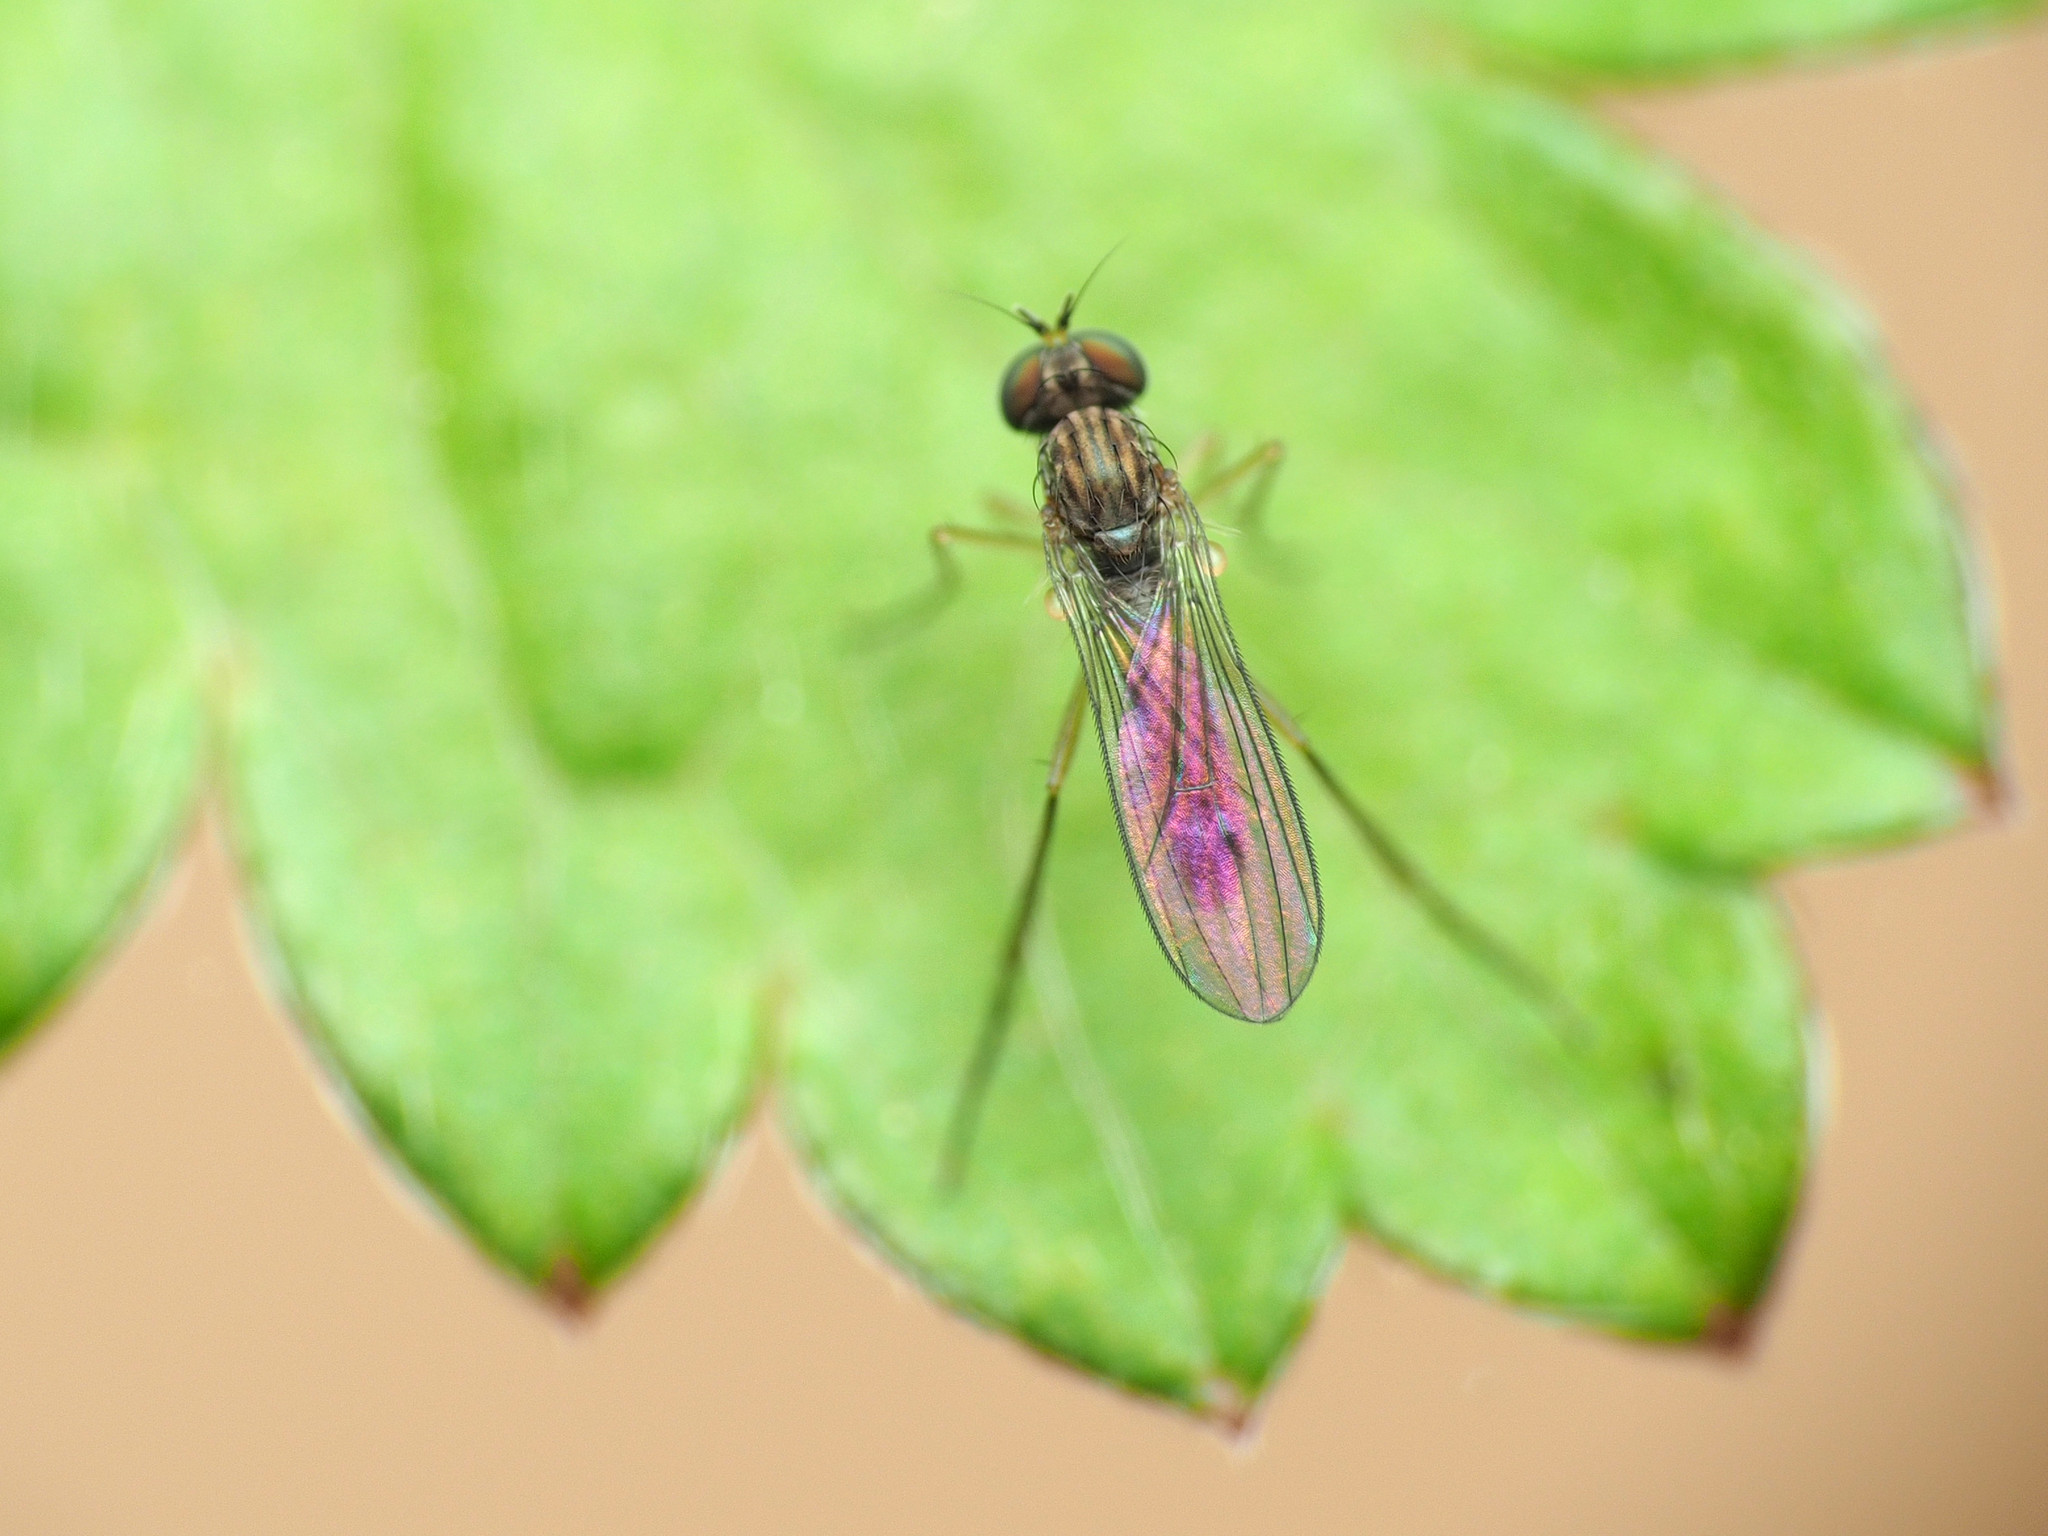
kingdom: Animalia
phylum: Arthropoda
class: Insecta
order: Diptera
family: Dolichopodidae
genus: Sympycnus
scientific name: Sympycnus lineatus
